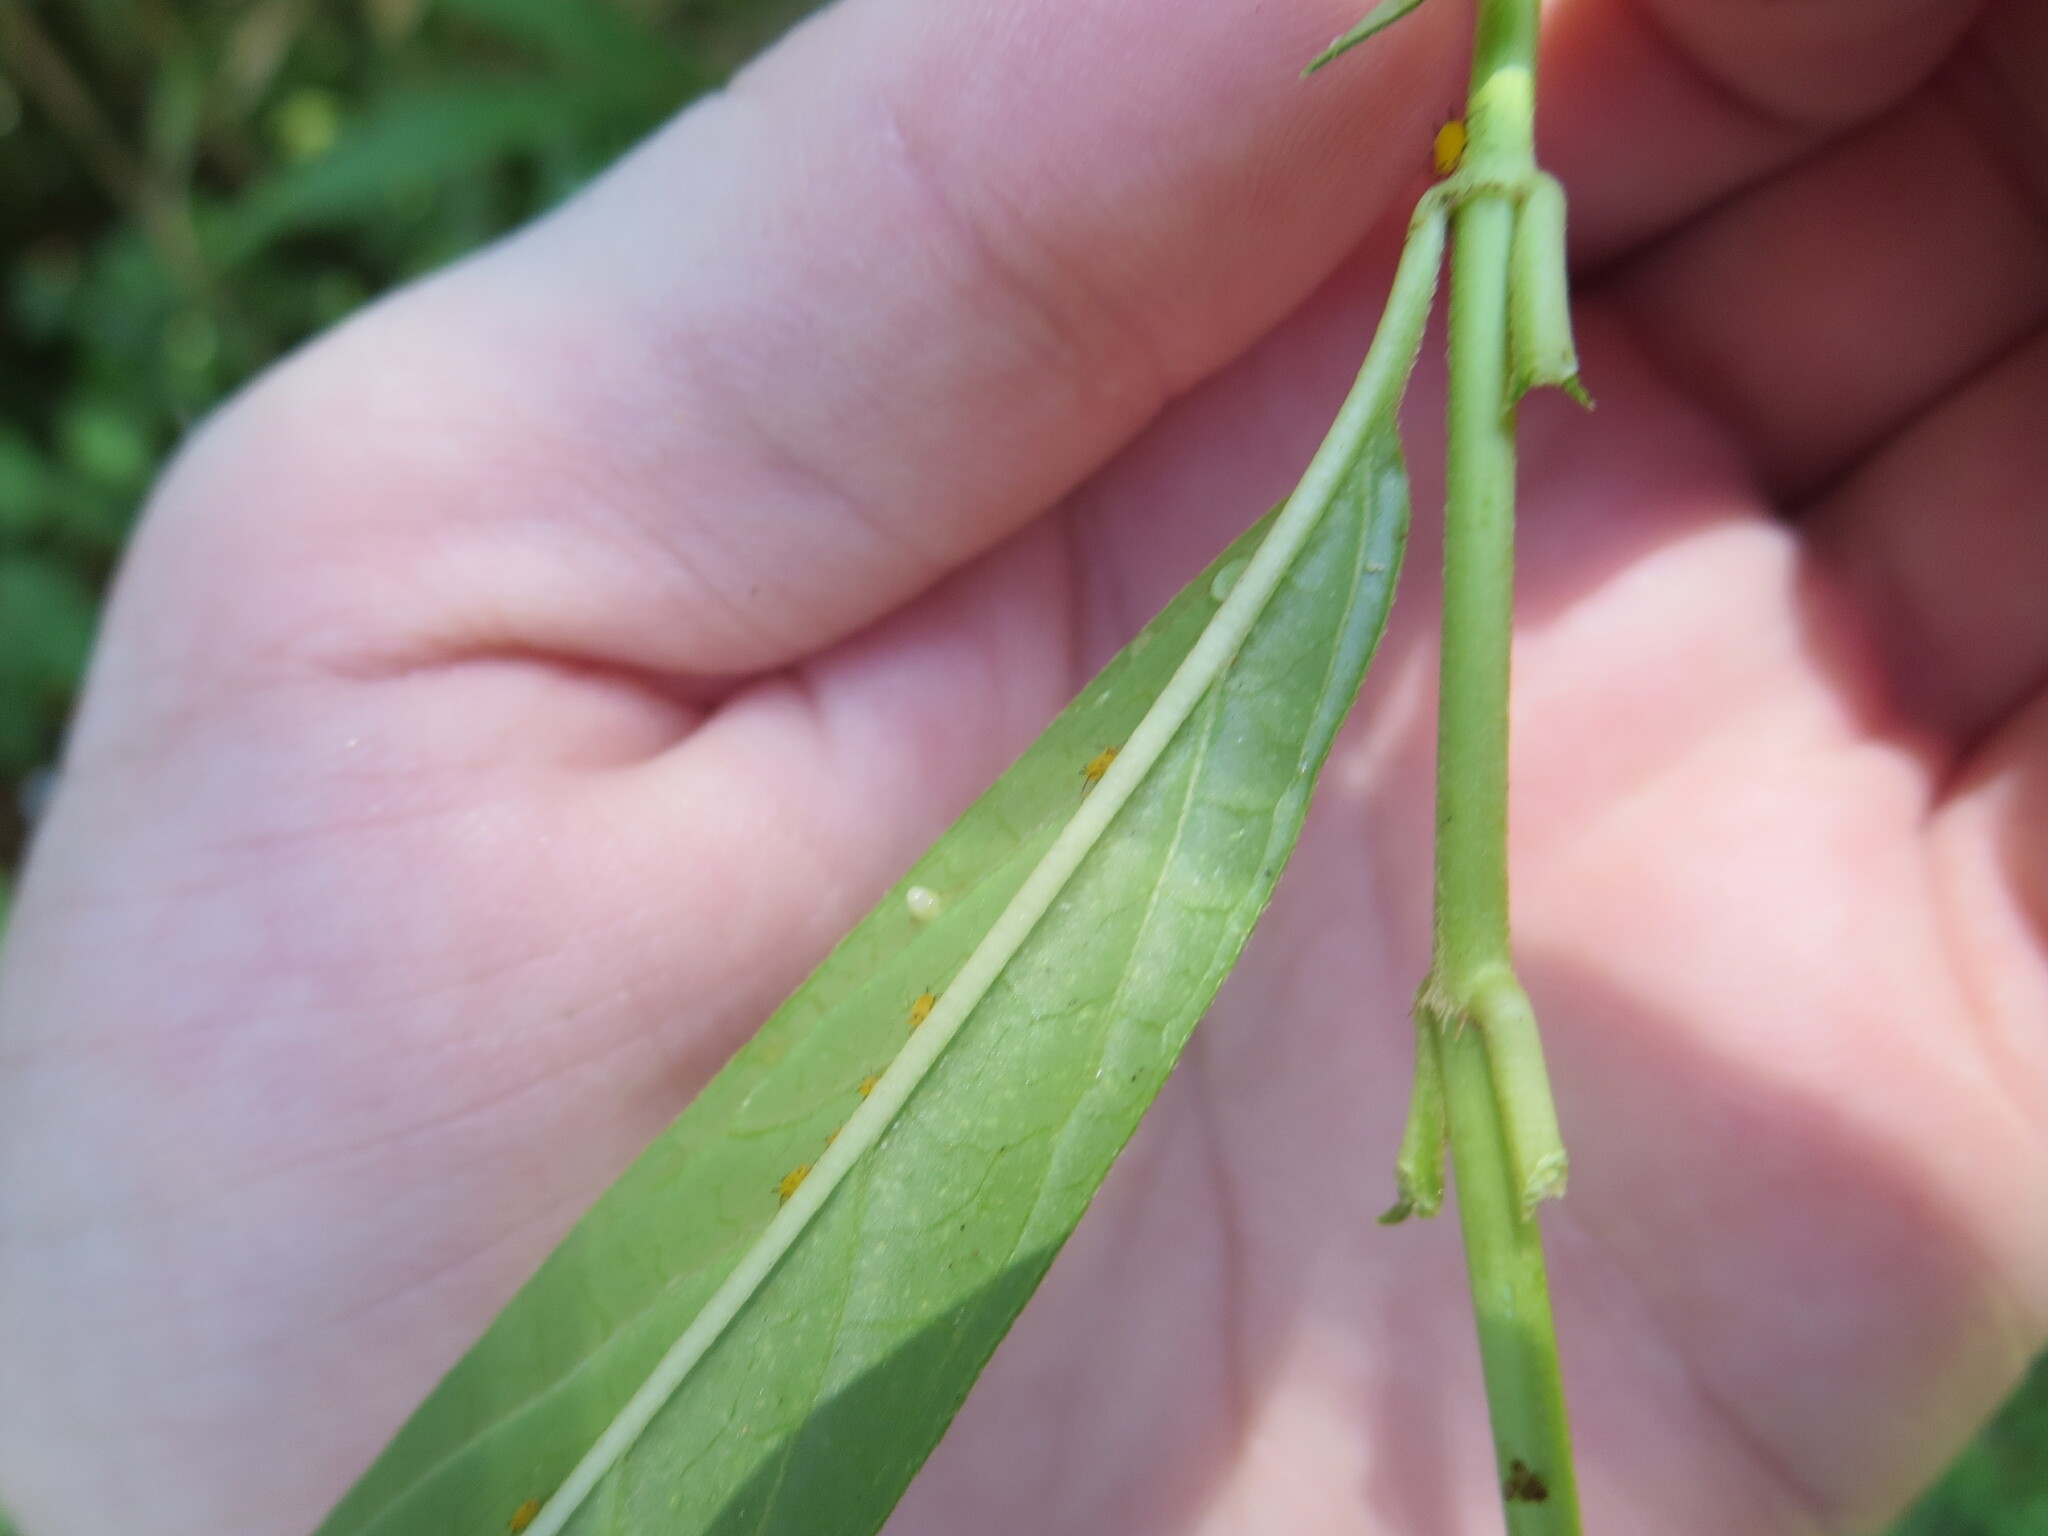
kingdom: Animalia
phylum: Arthropoda
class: Insecta
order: Lepidoptera
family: Nymphalidae
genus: Danaus
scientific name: Danaus plexippus
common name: Monarch
